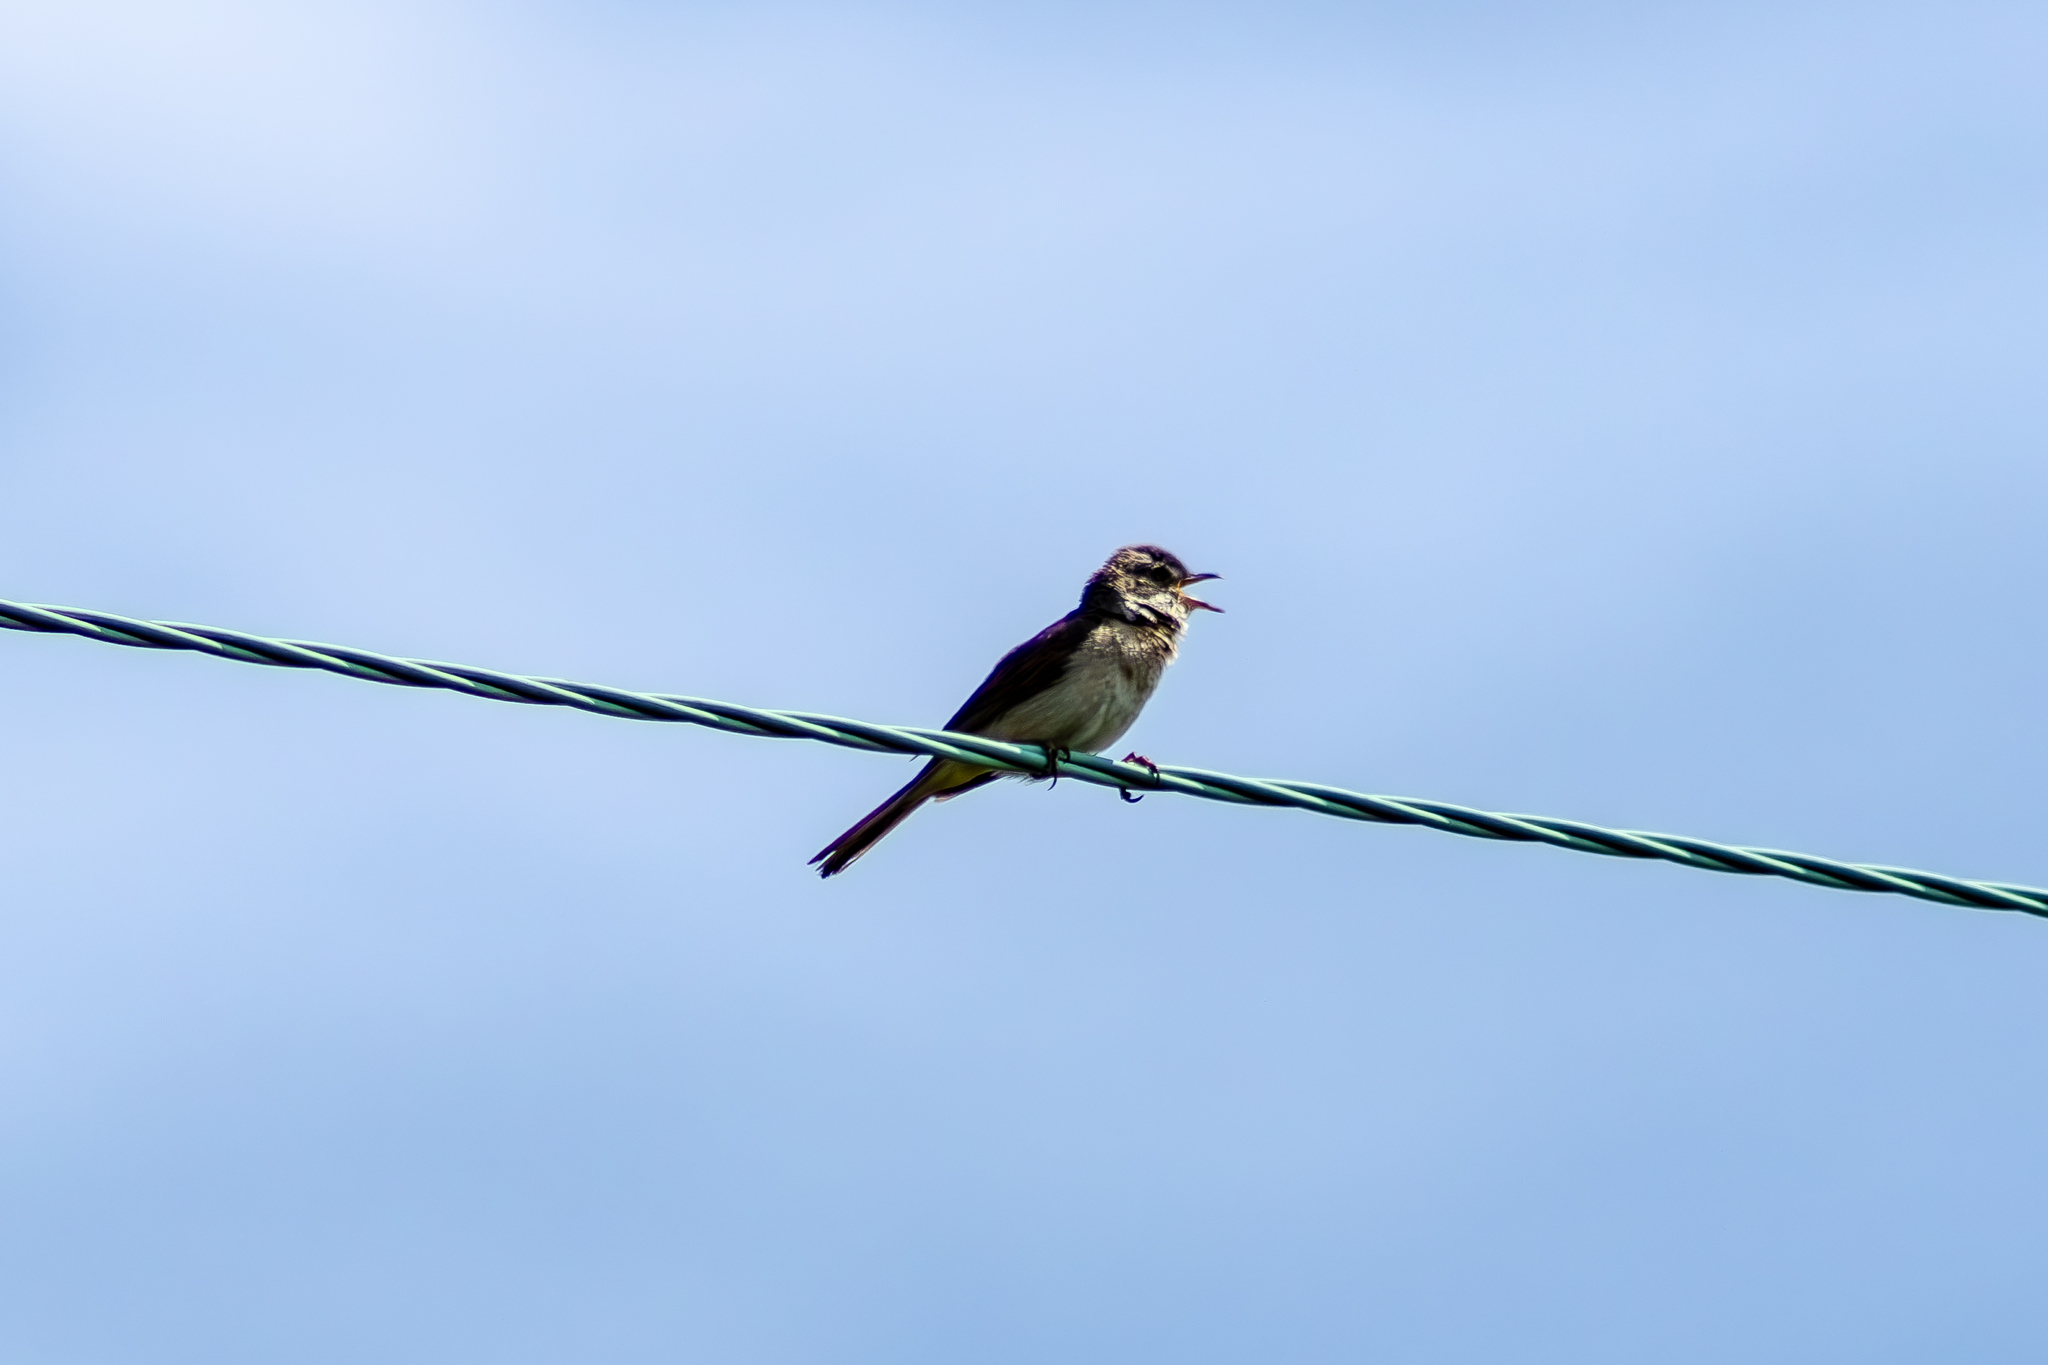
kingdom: Animalia
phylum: Chordata
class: Aves
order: Passeriformes
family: Sylviidae
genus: Sylvia
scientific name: Sylvia communis
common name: Common whitethroat
